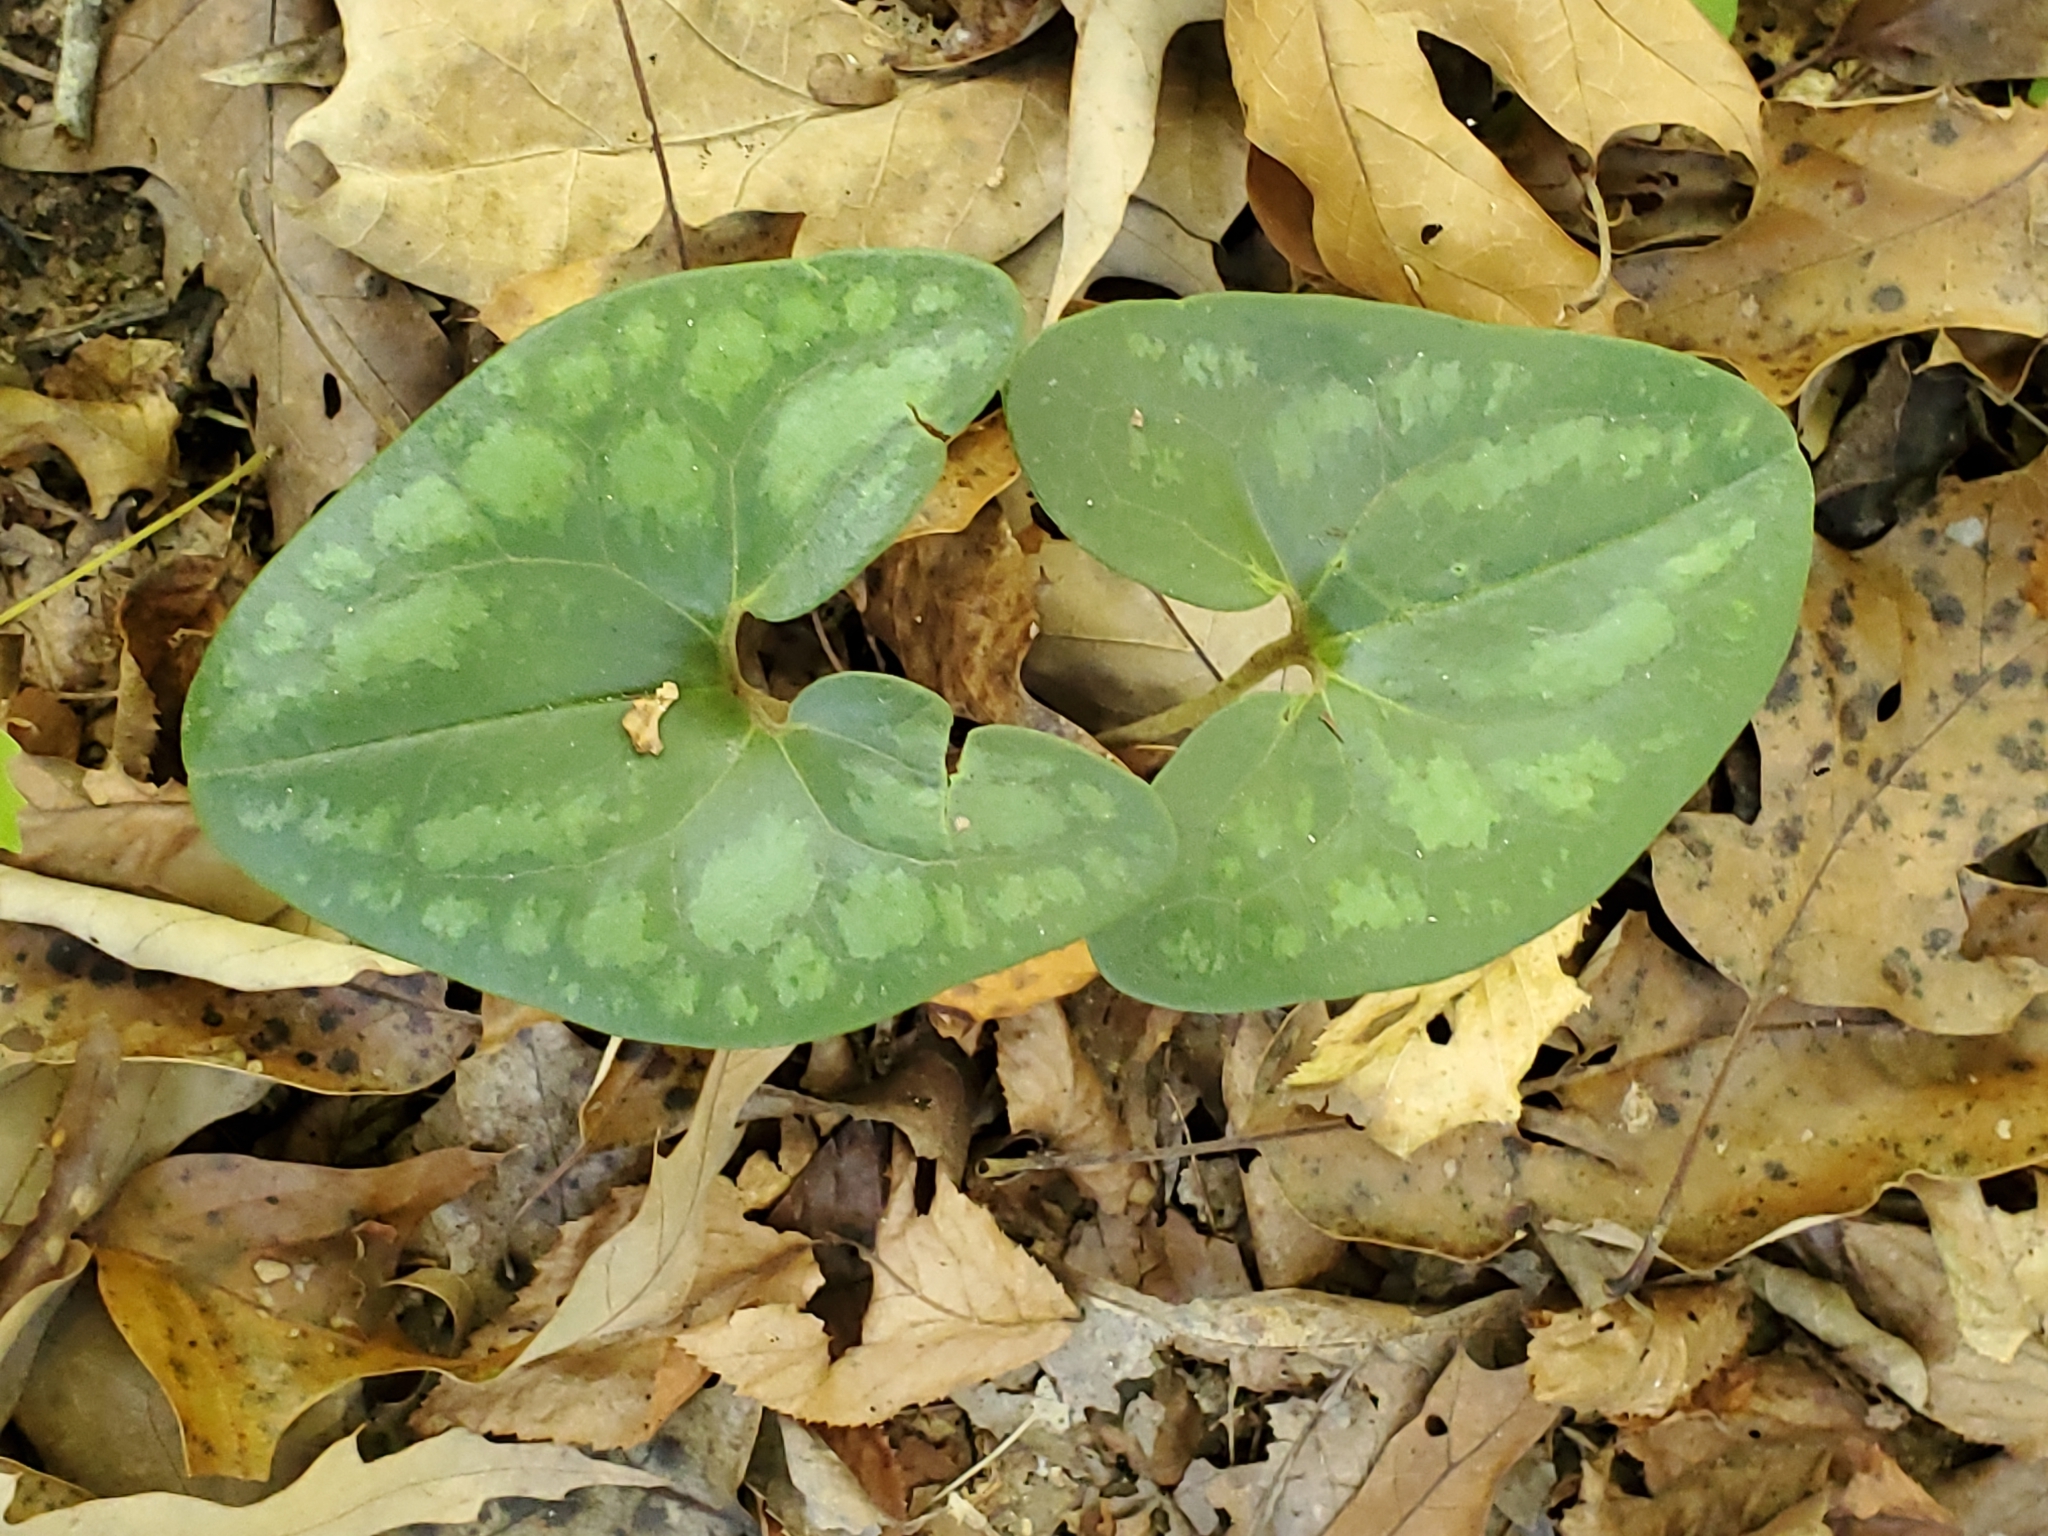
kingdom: Plantae
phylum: Tracheophyta
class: Magnoliopsida
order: Piperales
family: Aristolochiaceae
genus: Hexastylis
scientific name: Hexastylis arifolia
